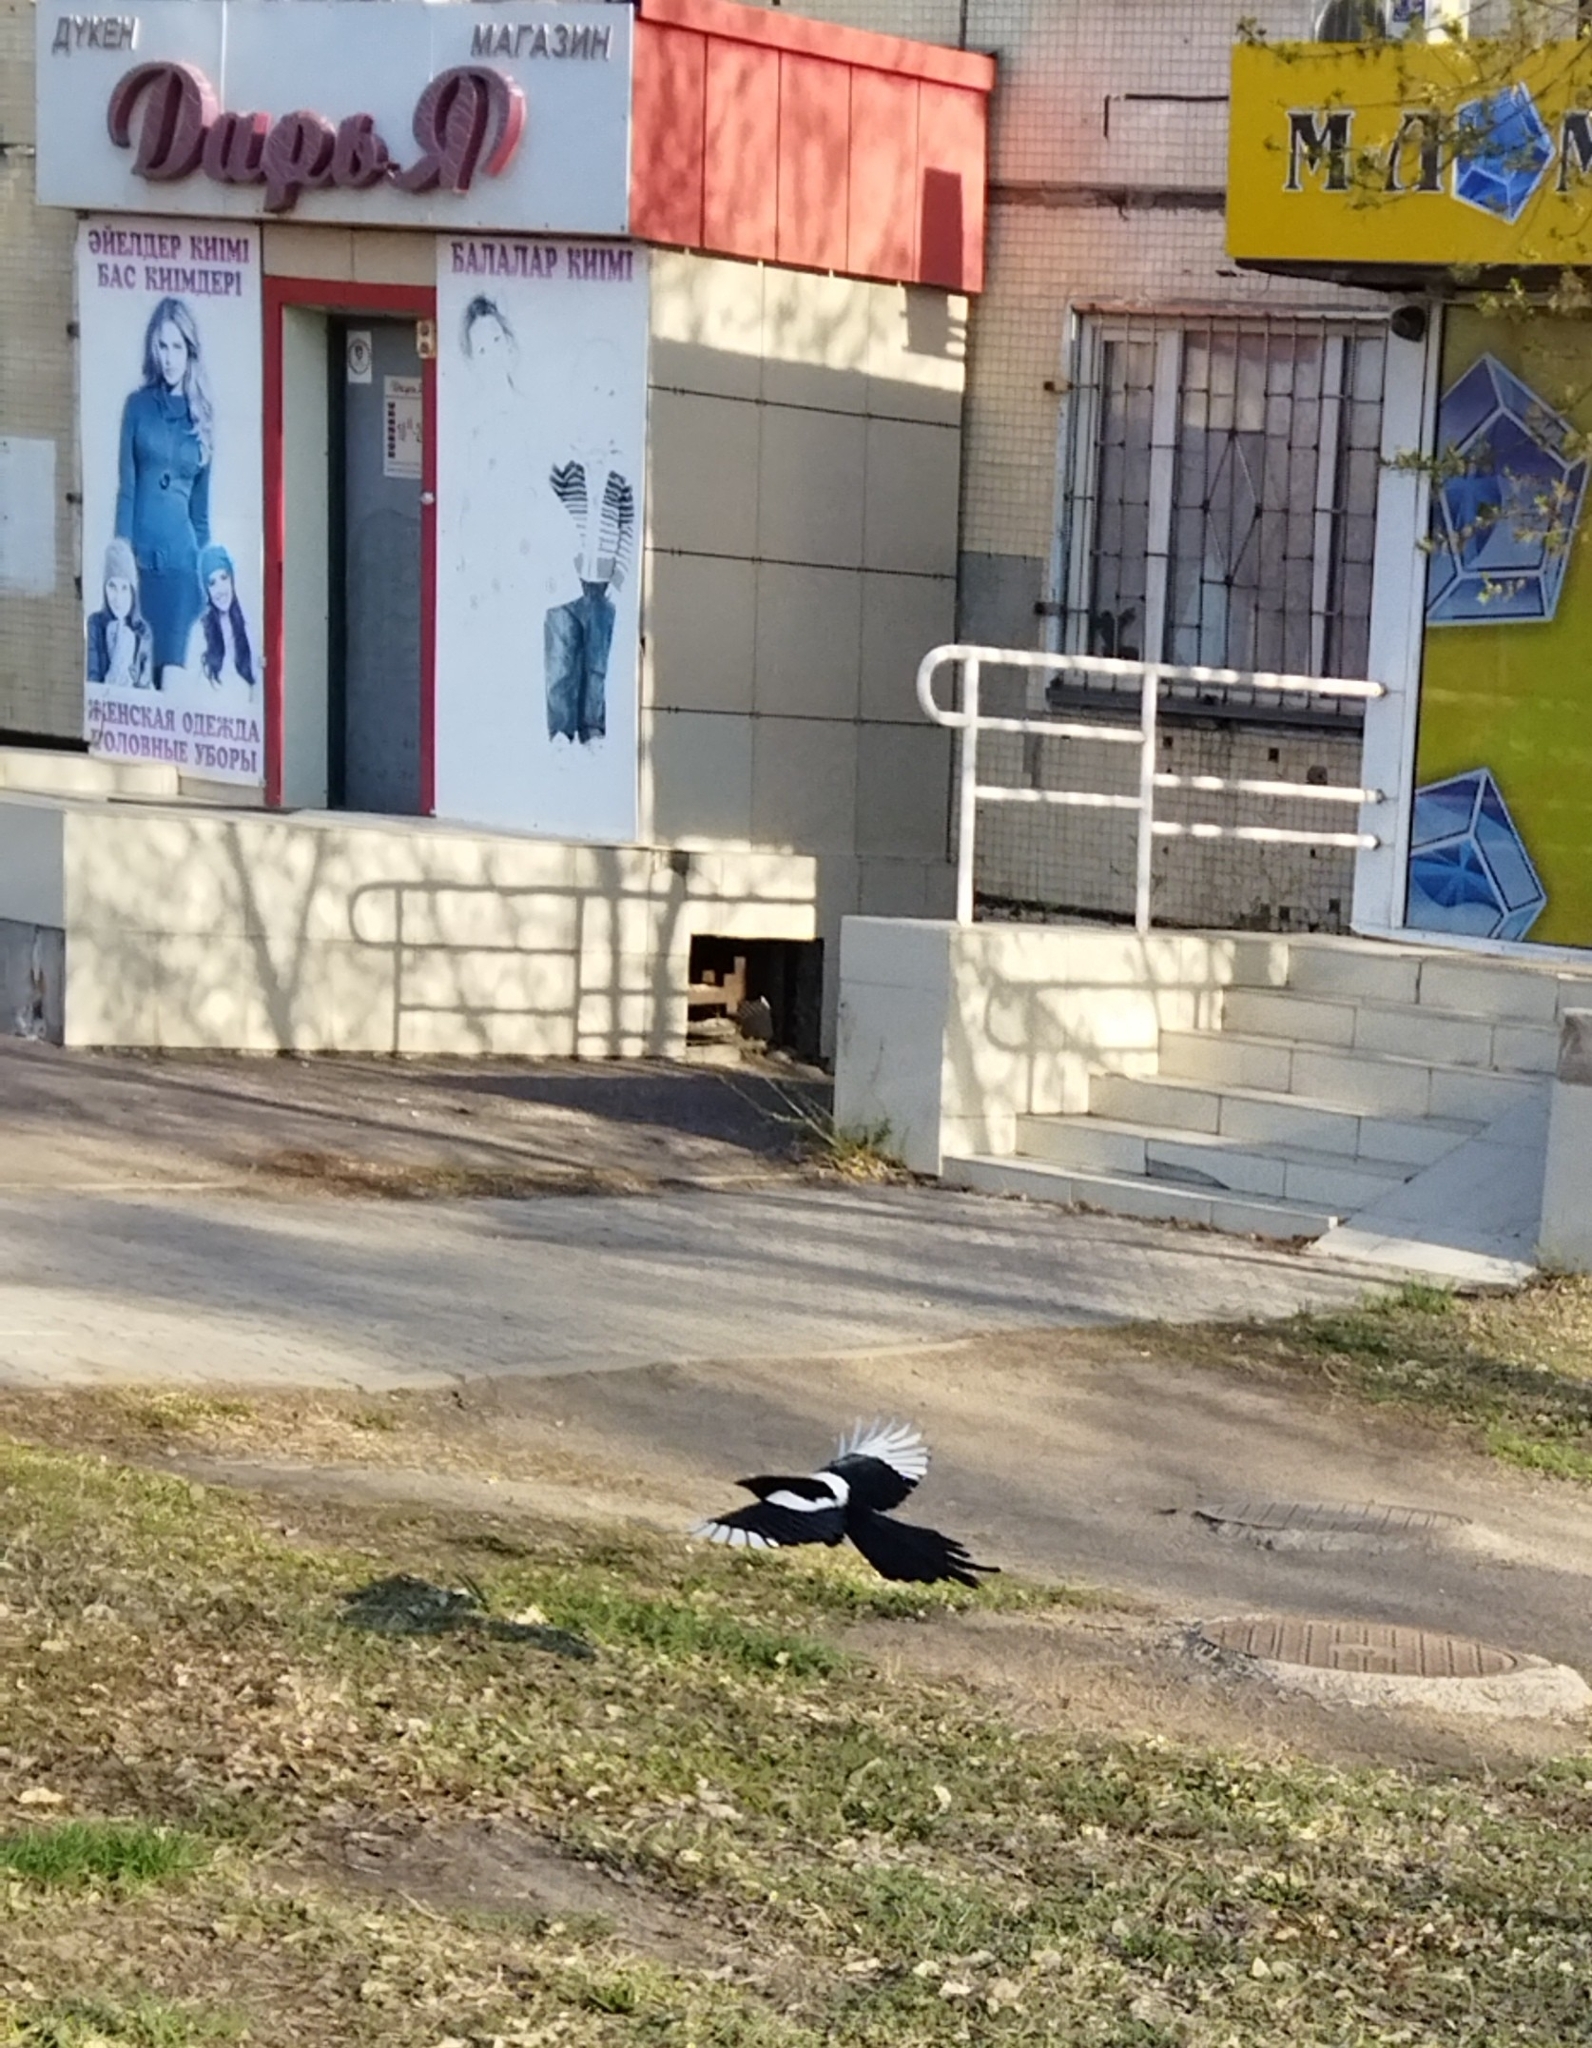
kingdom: Animalia
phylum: Chordata
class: Aves
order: Passeriformes
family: Corvidae
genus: Pica
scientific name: Pica pica
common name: Eurasian magpie
